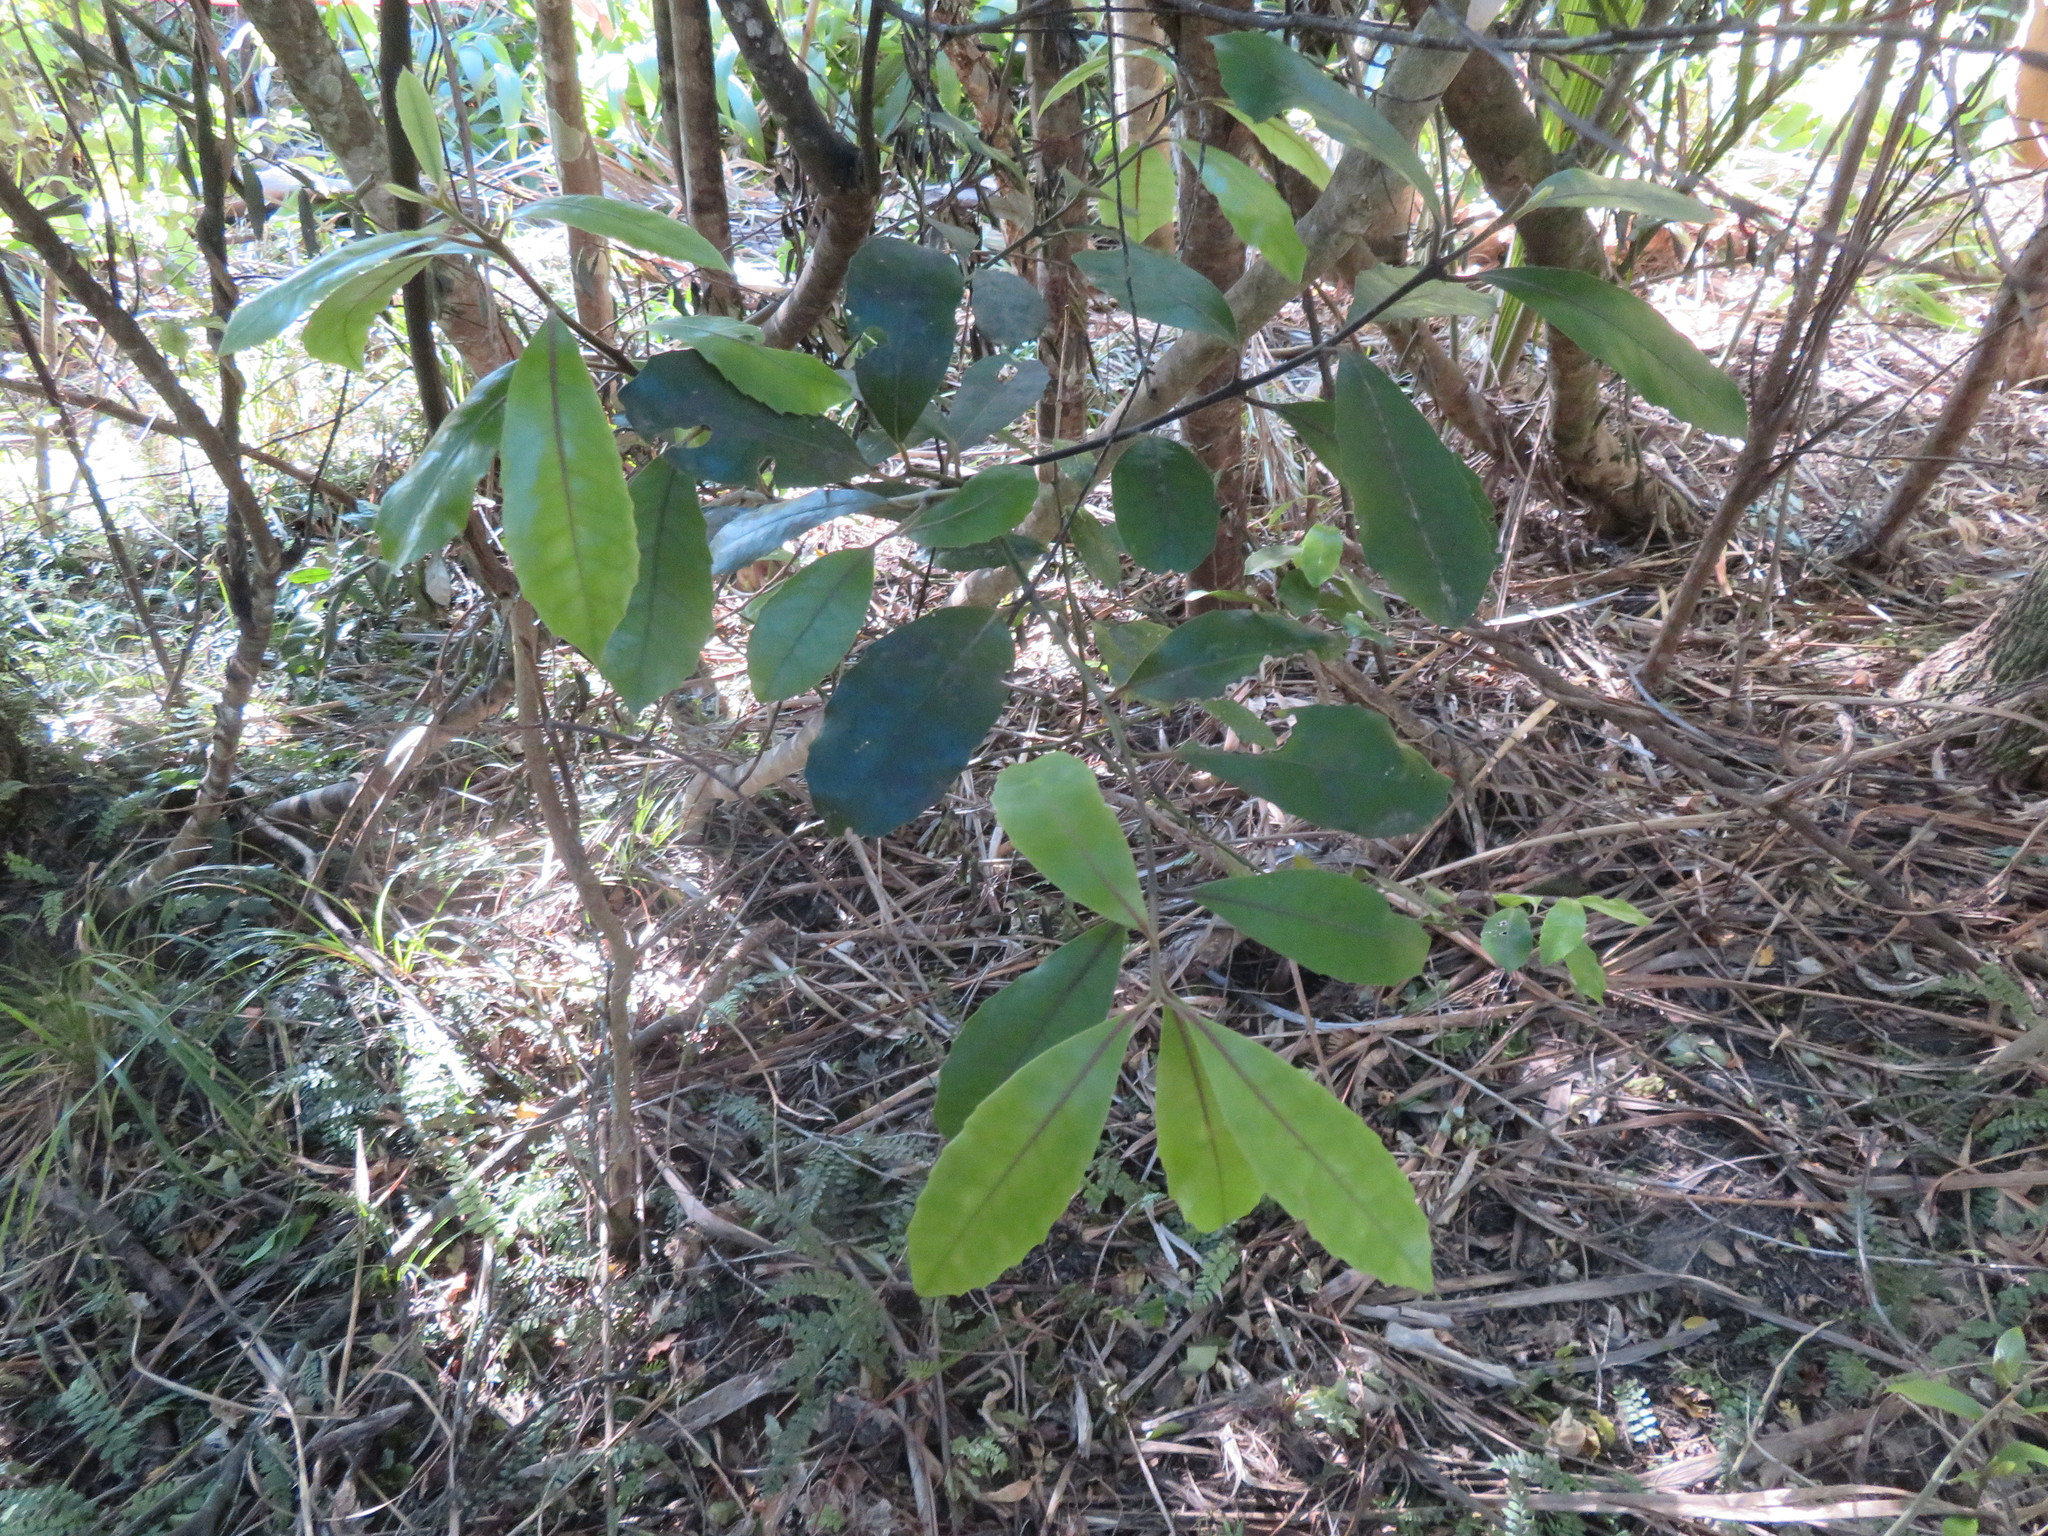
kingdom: Plantae
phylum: Tracheophyta
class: Magnoliopsida
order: Laurales
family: Monimiaceae
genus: Hedycarya
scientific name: Hedycarya arborea
